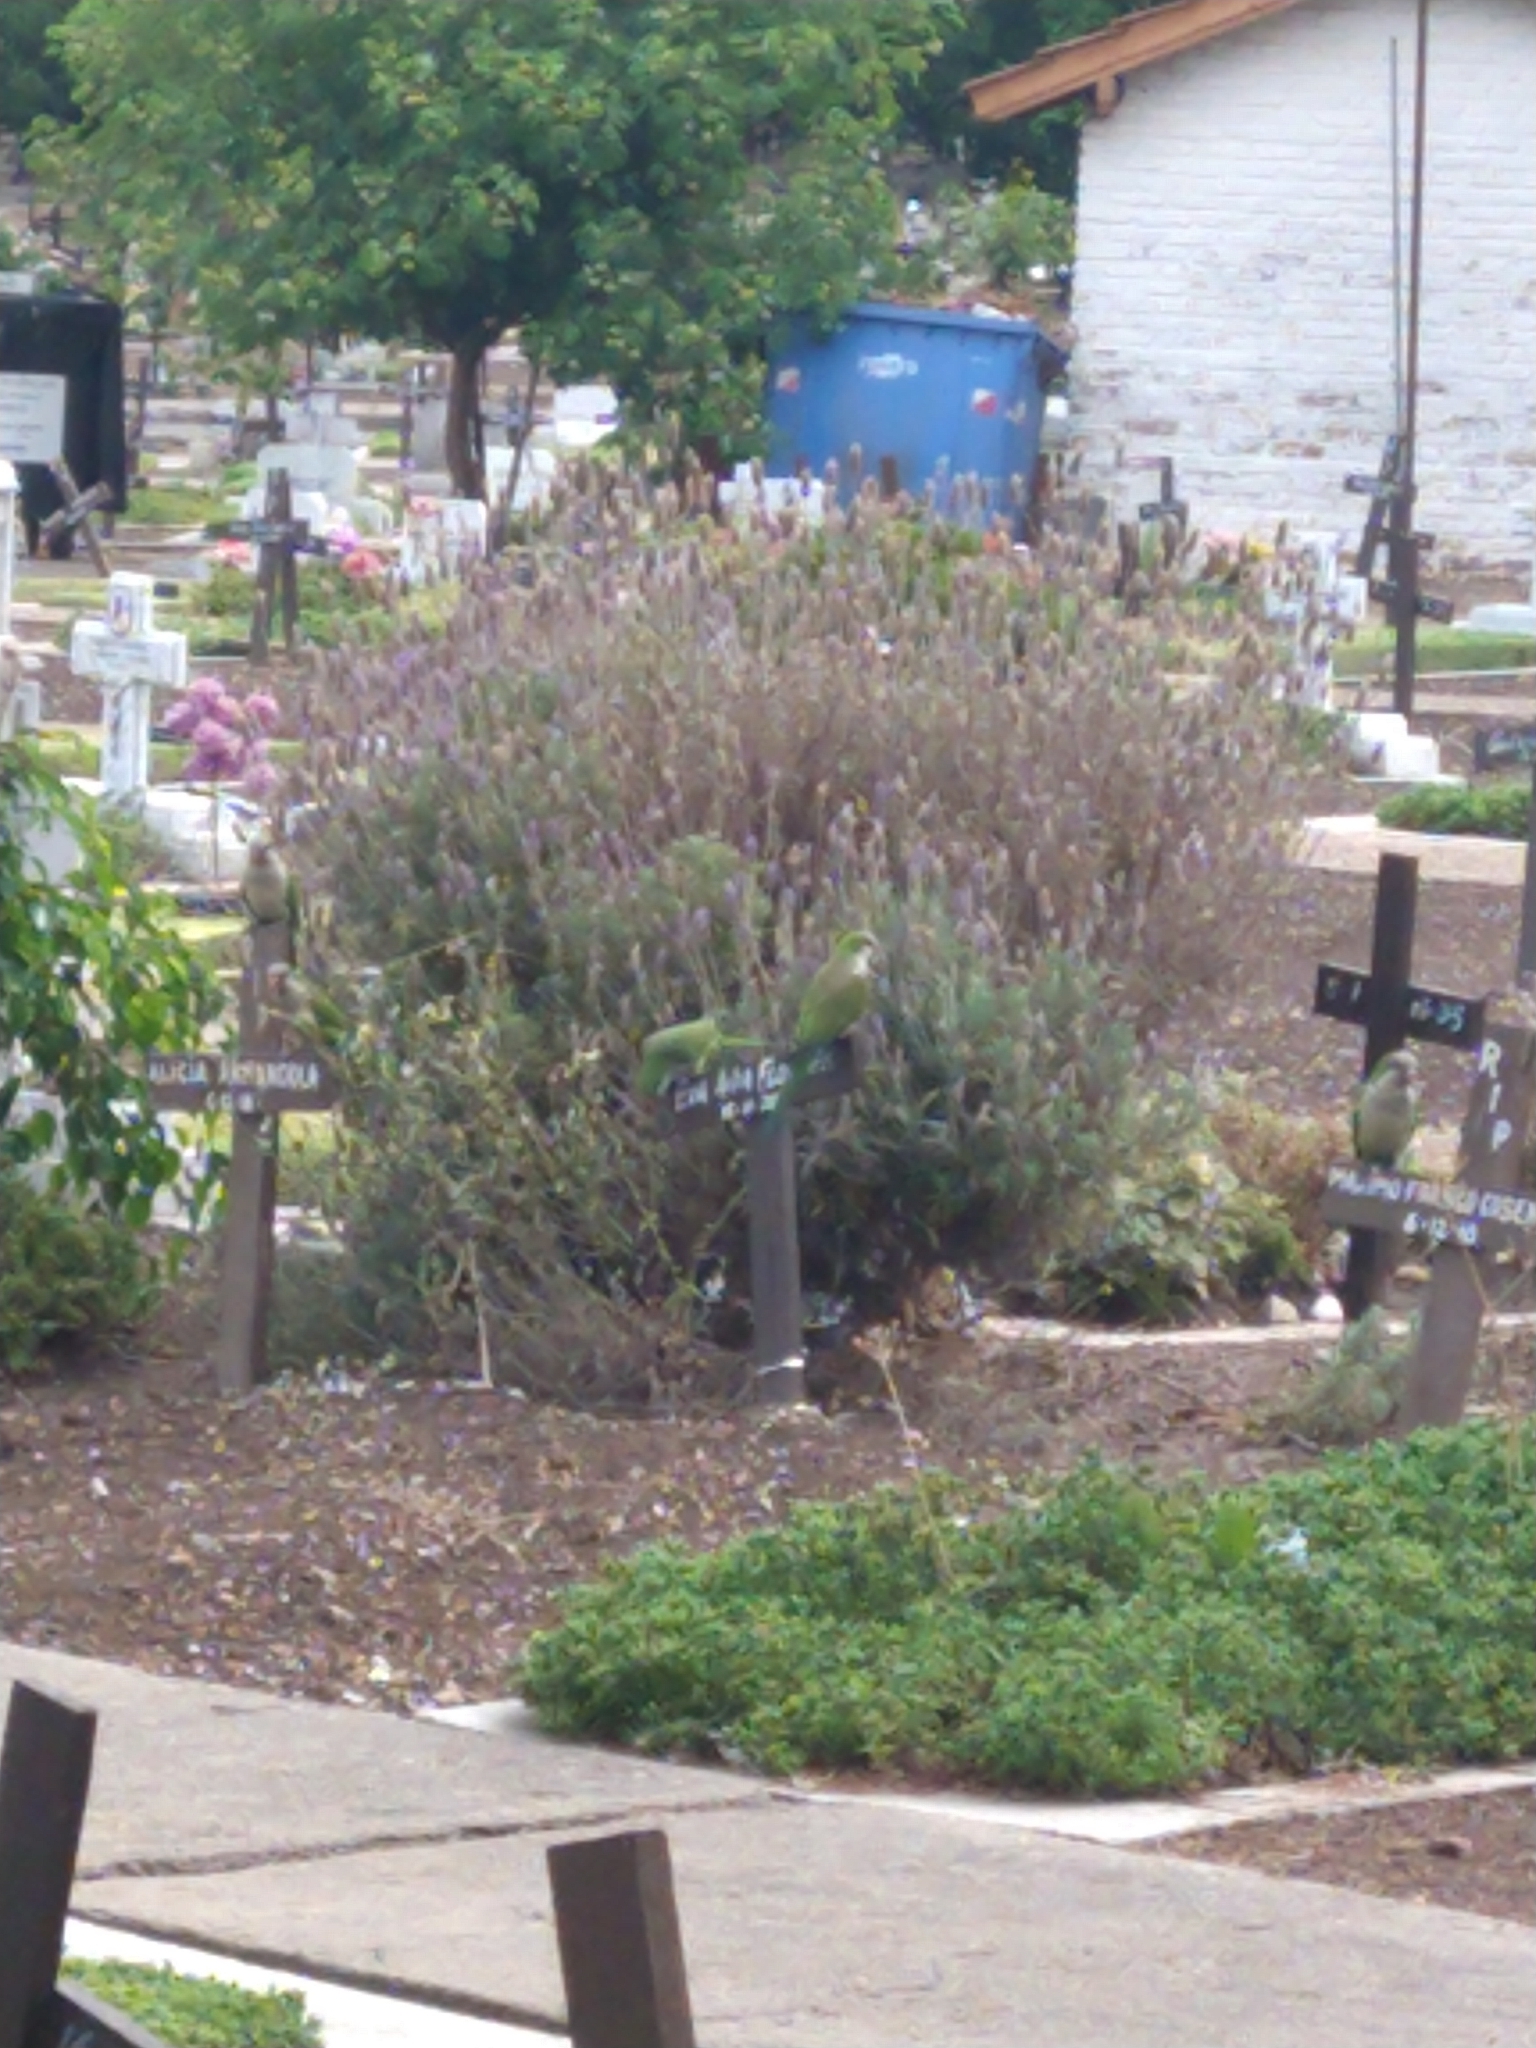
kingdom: Animalia
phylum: Chordata
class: Aves
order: Psittaciformes
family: Psittacidae
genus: Myiopsitta
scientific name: Myiopsitta monachus
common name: Monk parakeet
